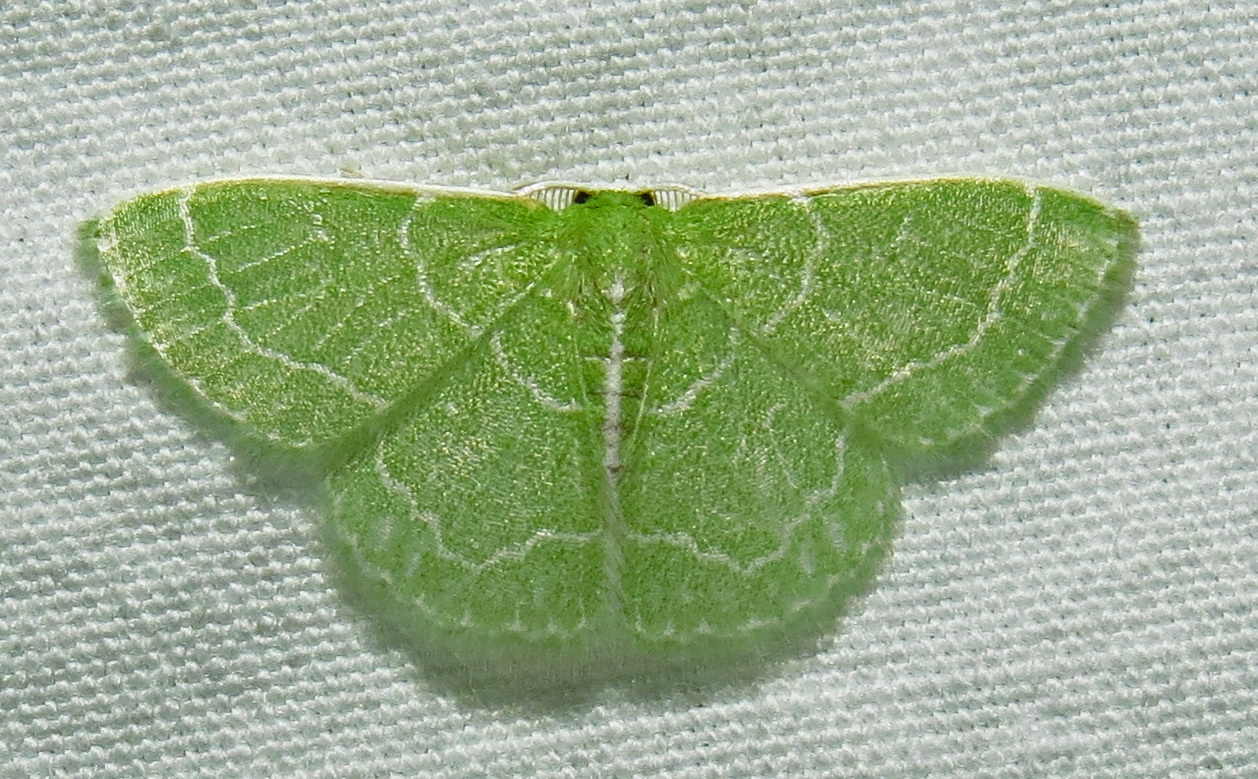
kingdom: Animalia
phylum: Arthropoda
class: Insecta
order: Lepidoptera
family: Geometridae
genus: Synchlora
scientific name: Synchlora aerata
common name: Wavy-lined emerald
